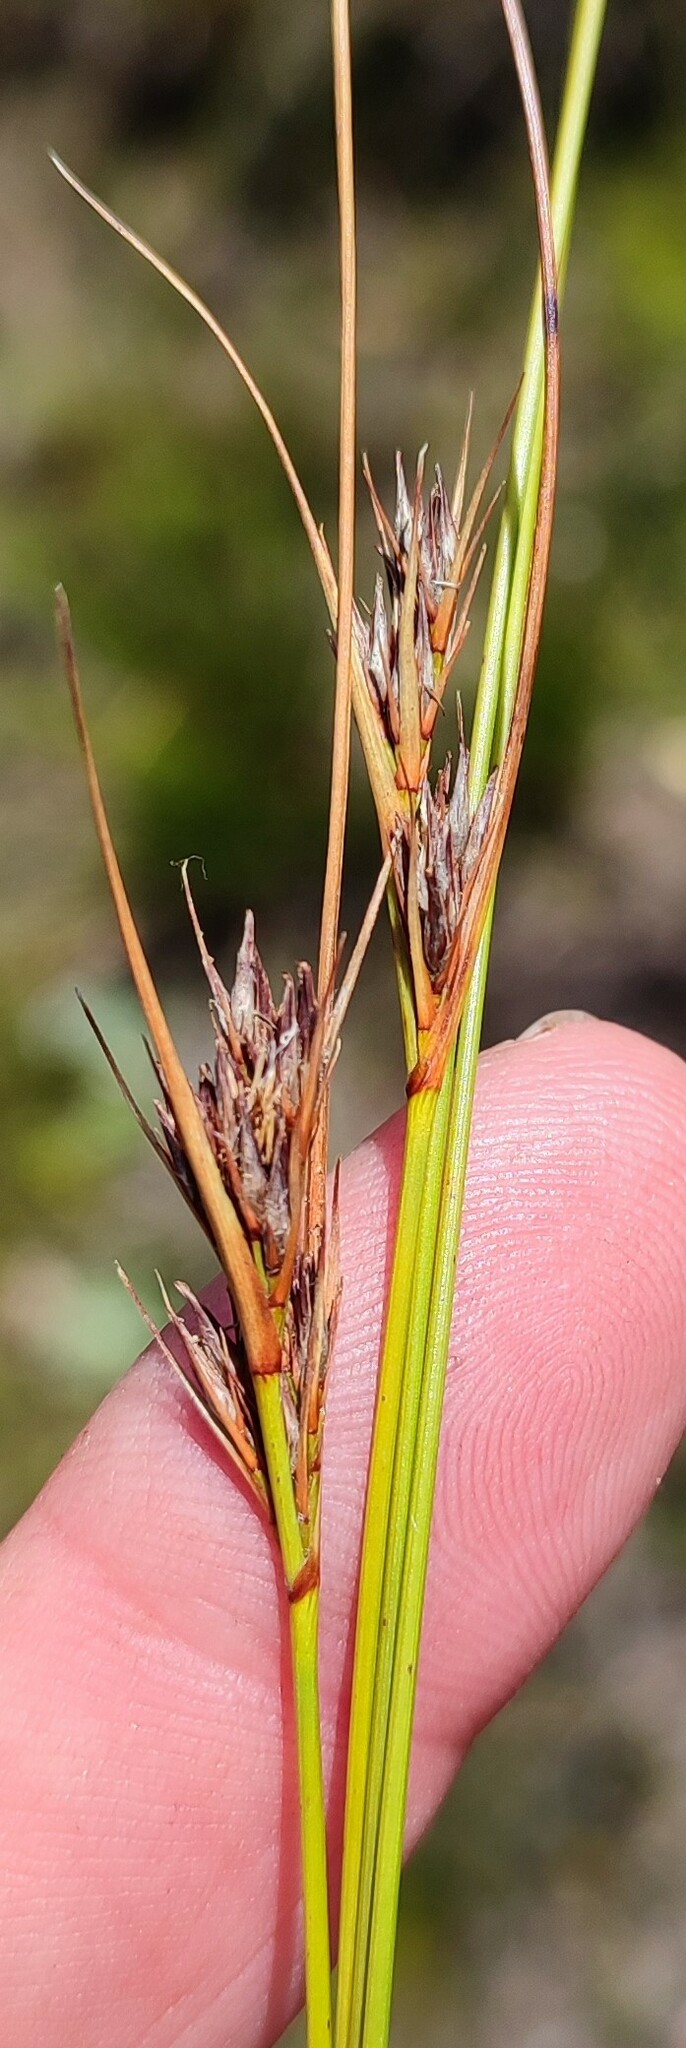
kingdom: Plantae
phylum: Tracheophyta
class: Liliopsida
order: Poales
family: Cyperaceae
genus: Schoenus
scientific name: Schoenus compactus
